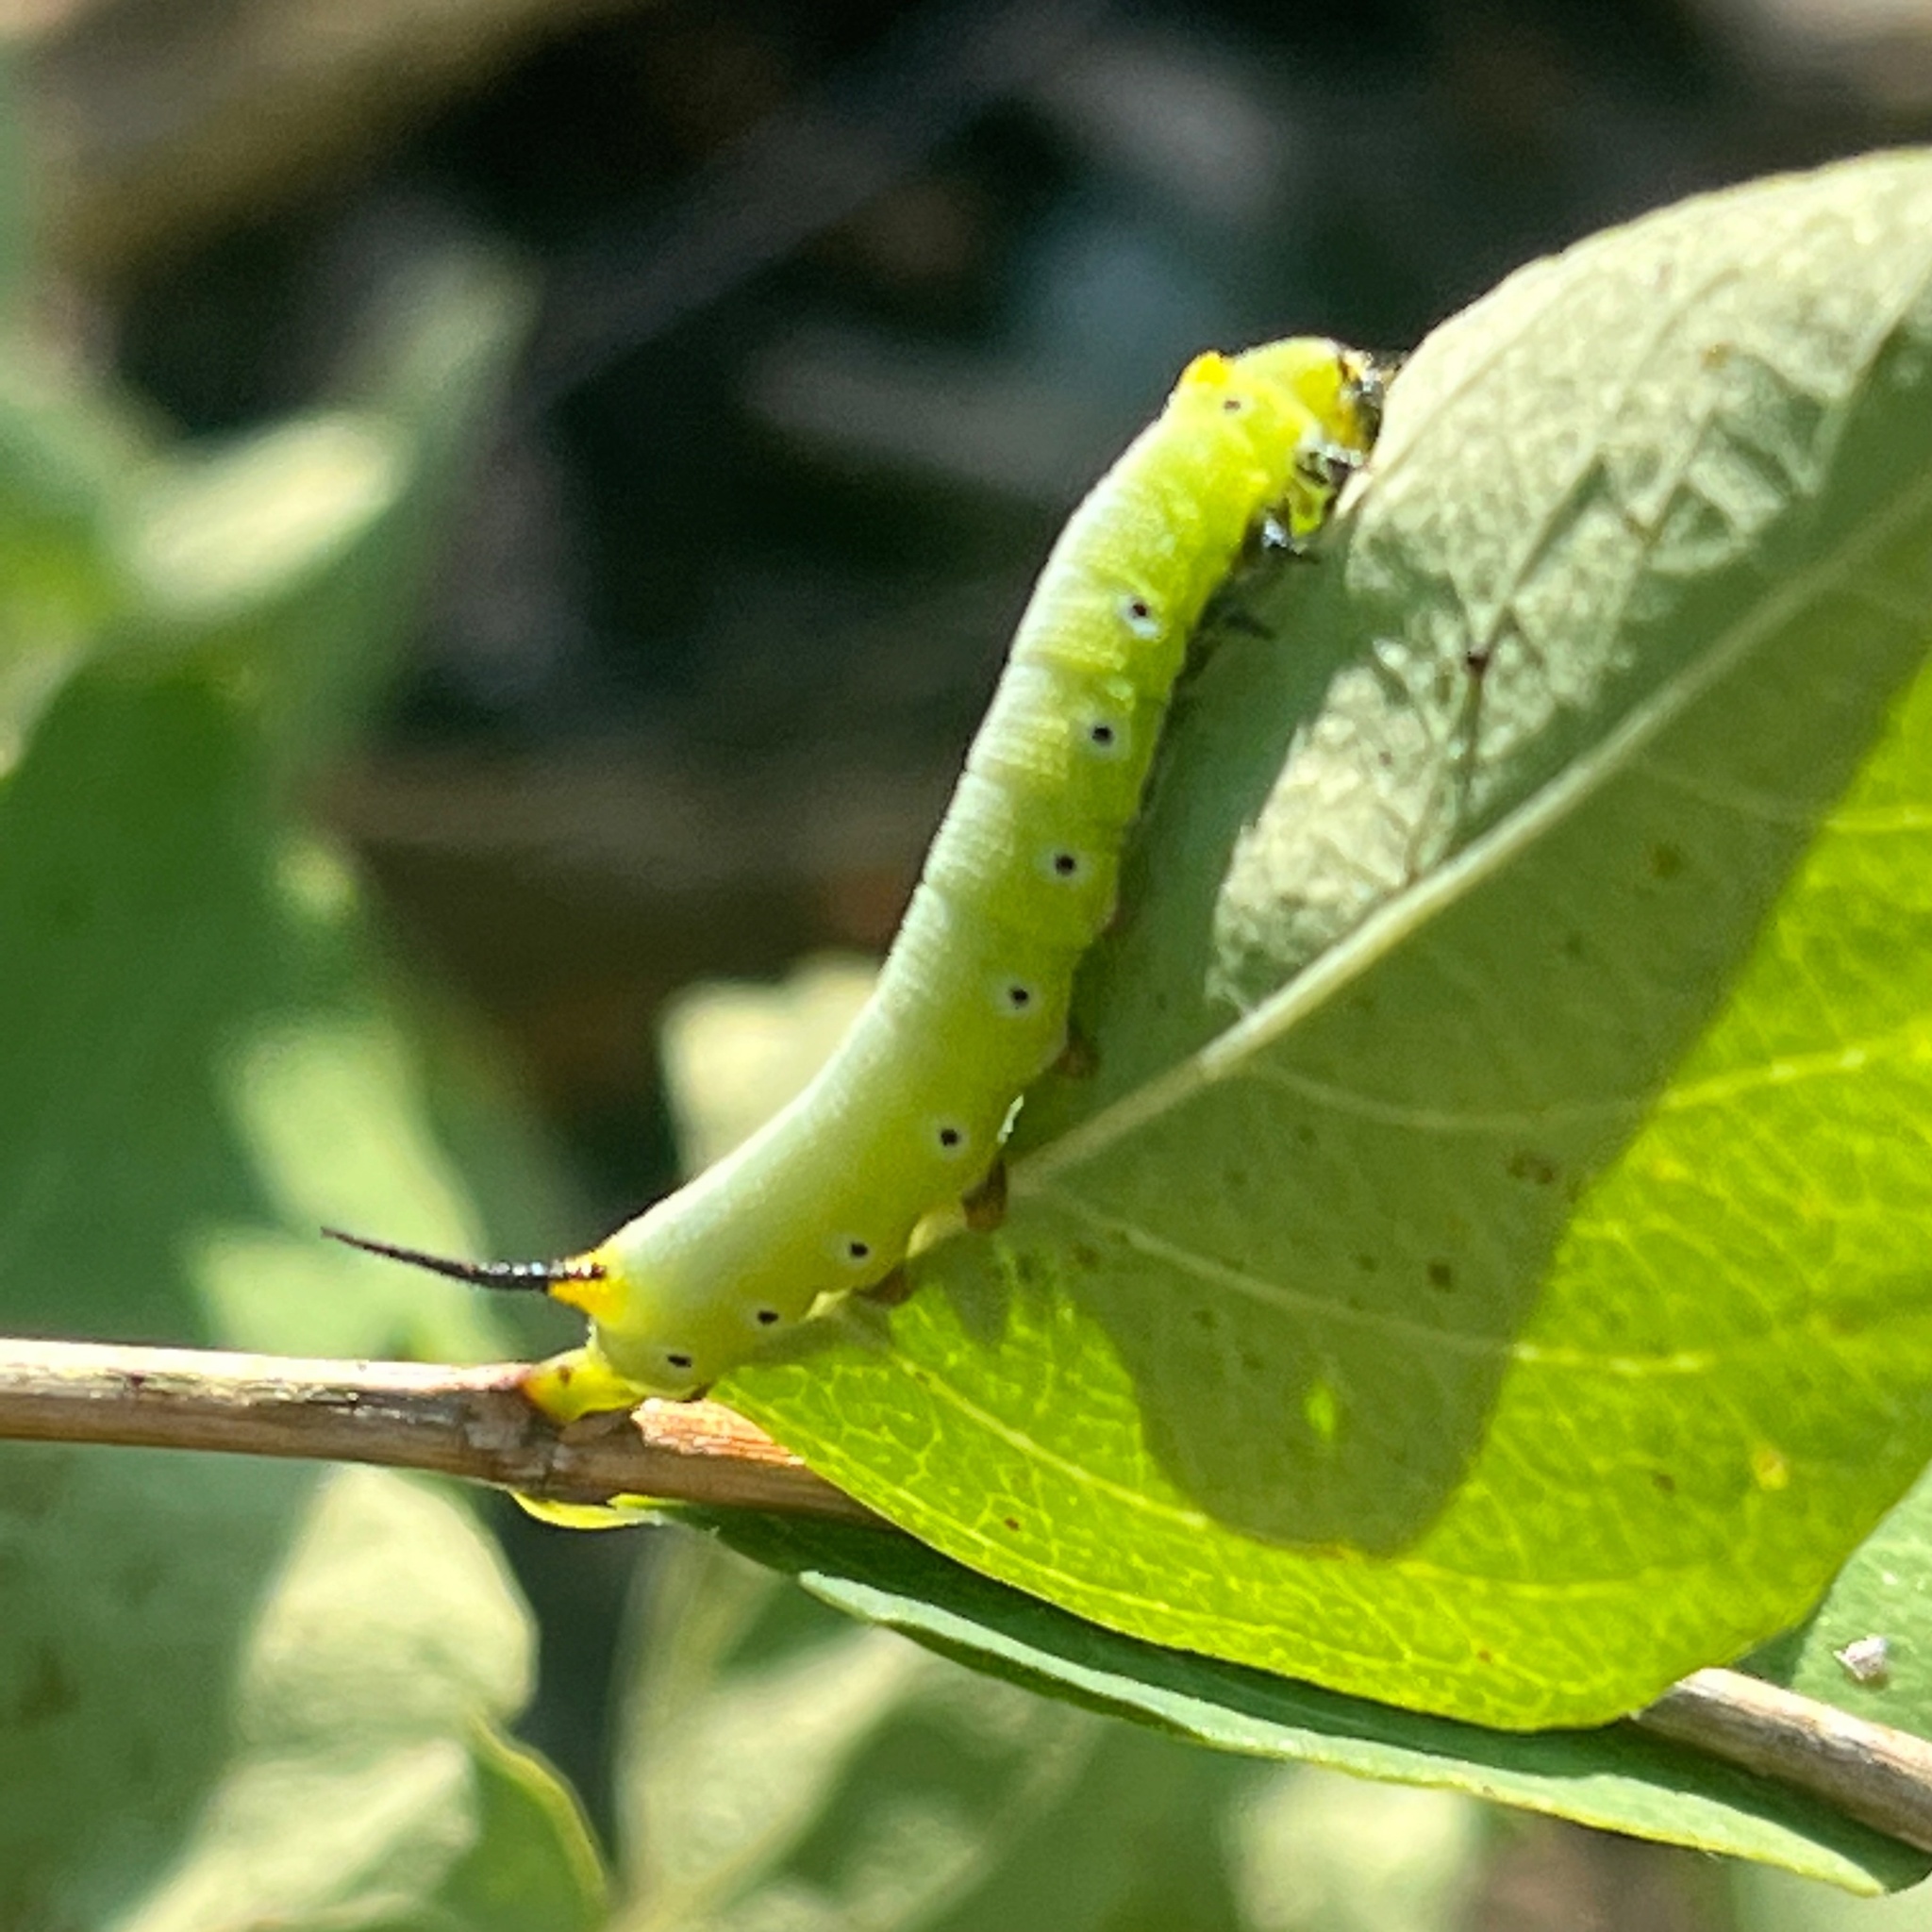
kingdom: Animalia
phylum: Arthropoda
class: Insecta
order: Lepidoptera
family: Sphingidae
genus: Hemaris
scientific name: Hemaris diffinis
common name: Bumblebee moth
